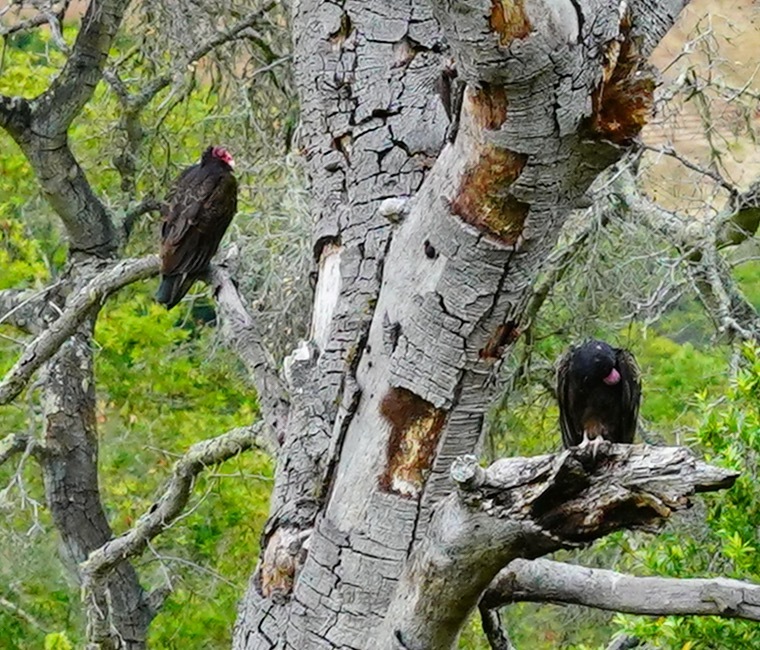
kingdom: Animalia
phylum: Chordata
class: Aves
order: Accipitriformes
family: Cathartidae
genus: Cathartes
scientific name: Cathartes aura
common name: Turkey vulture
